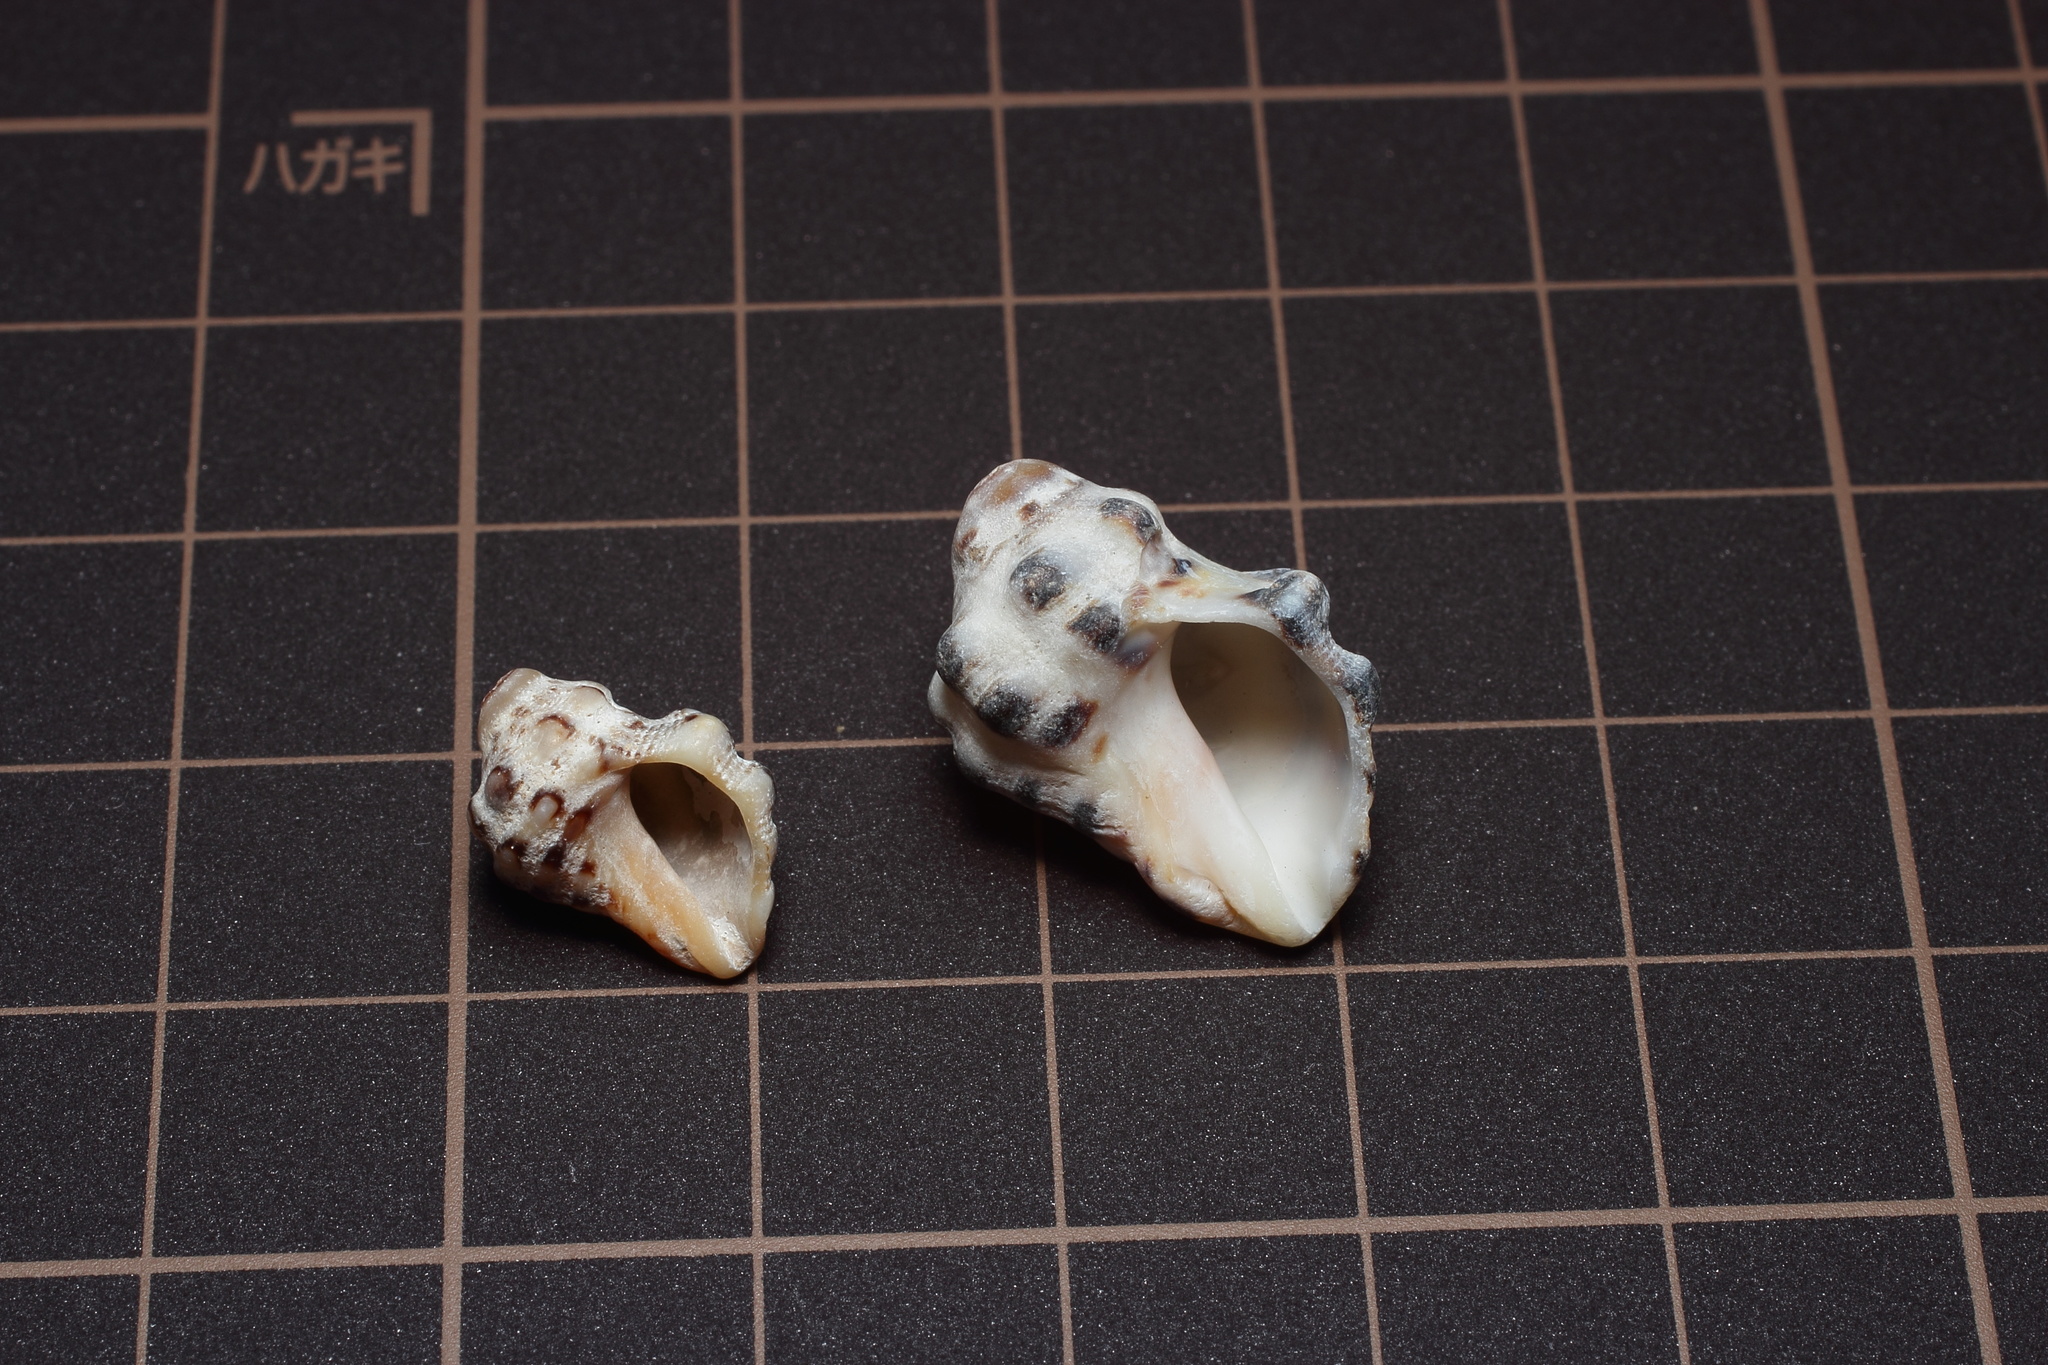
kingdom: Animalia
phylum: Mollusca
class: Gastropoda
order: Neogastropoda
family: Muricidae
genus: Reishia
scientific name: Reishia luteostoma
